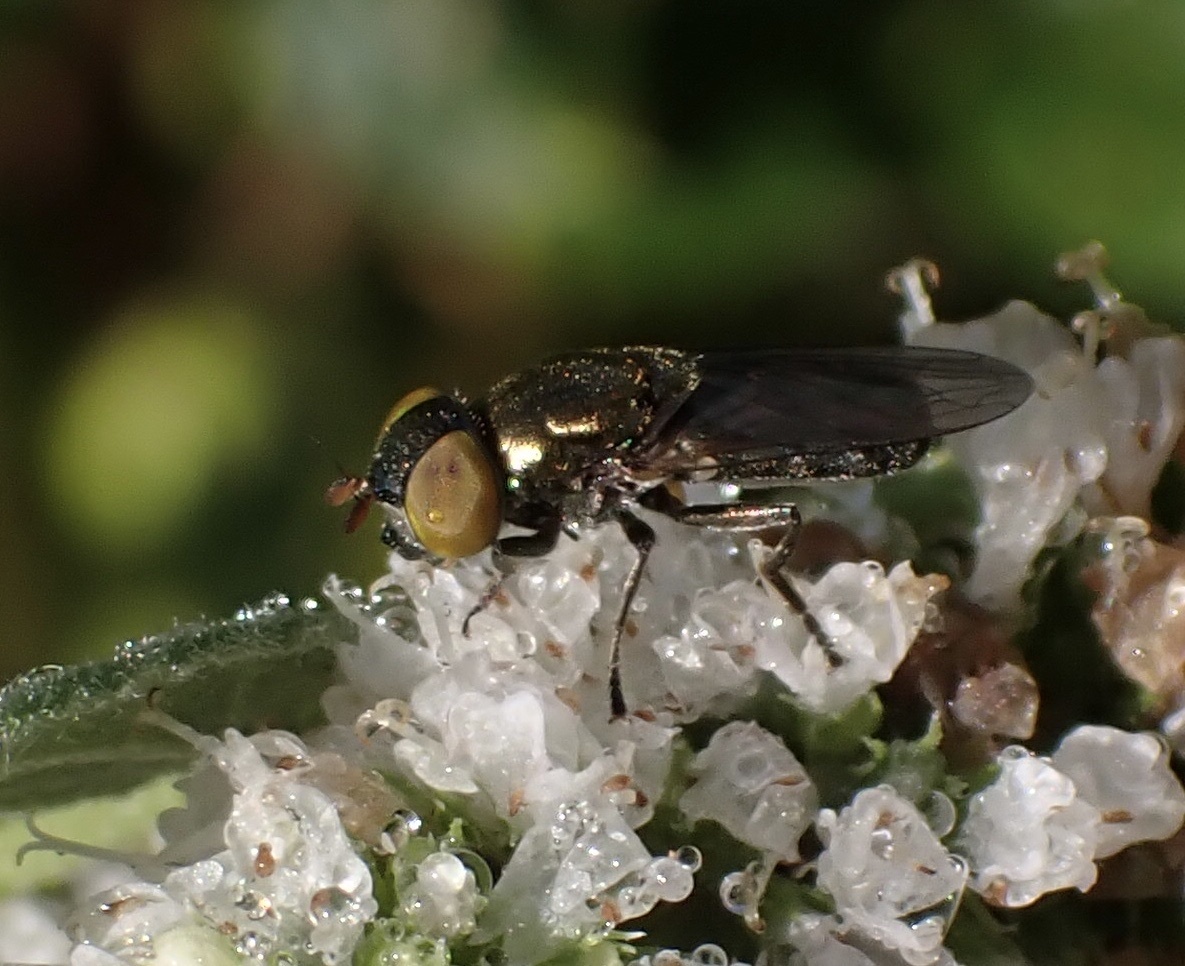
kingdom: Animalia
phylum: Arthropoda
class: Insecta
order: Diptera
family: Syrphidae
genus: Orthonevra
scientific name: Orthonevra splendens
